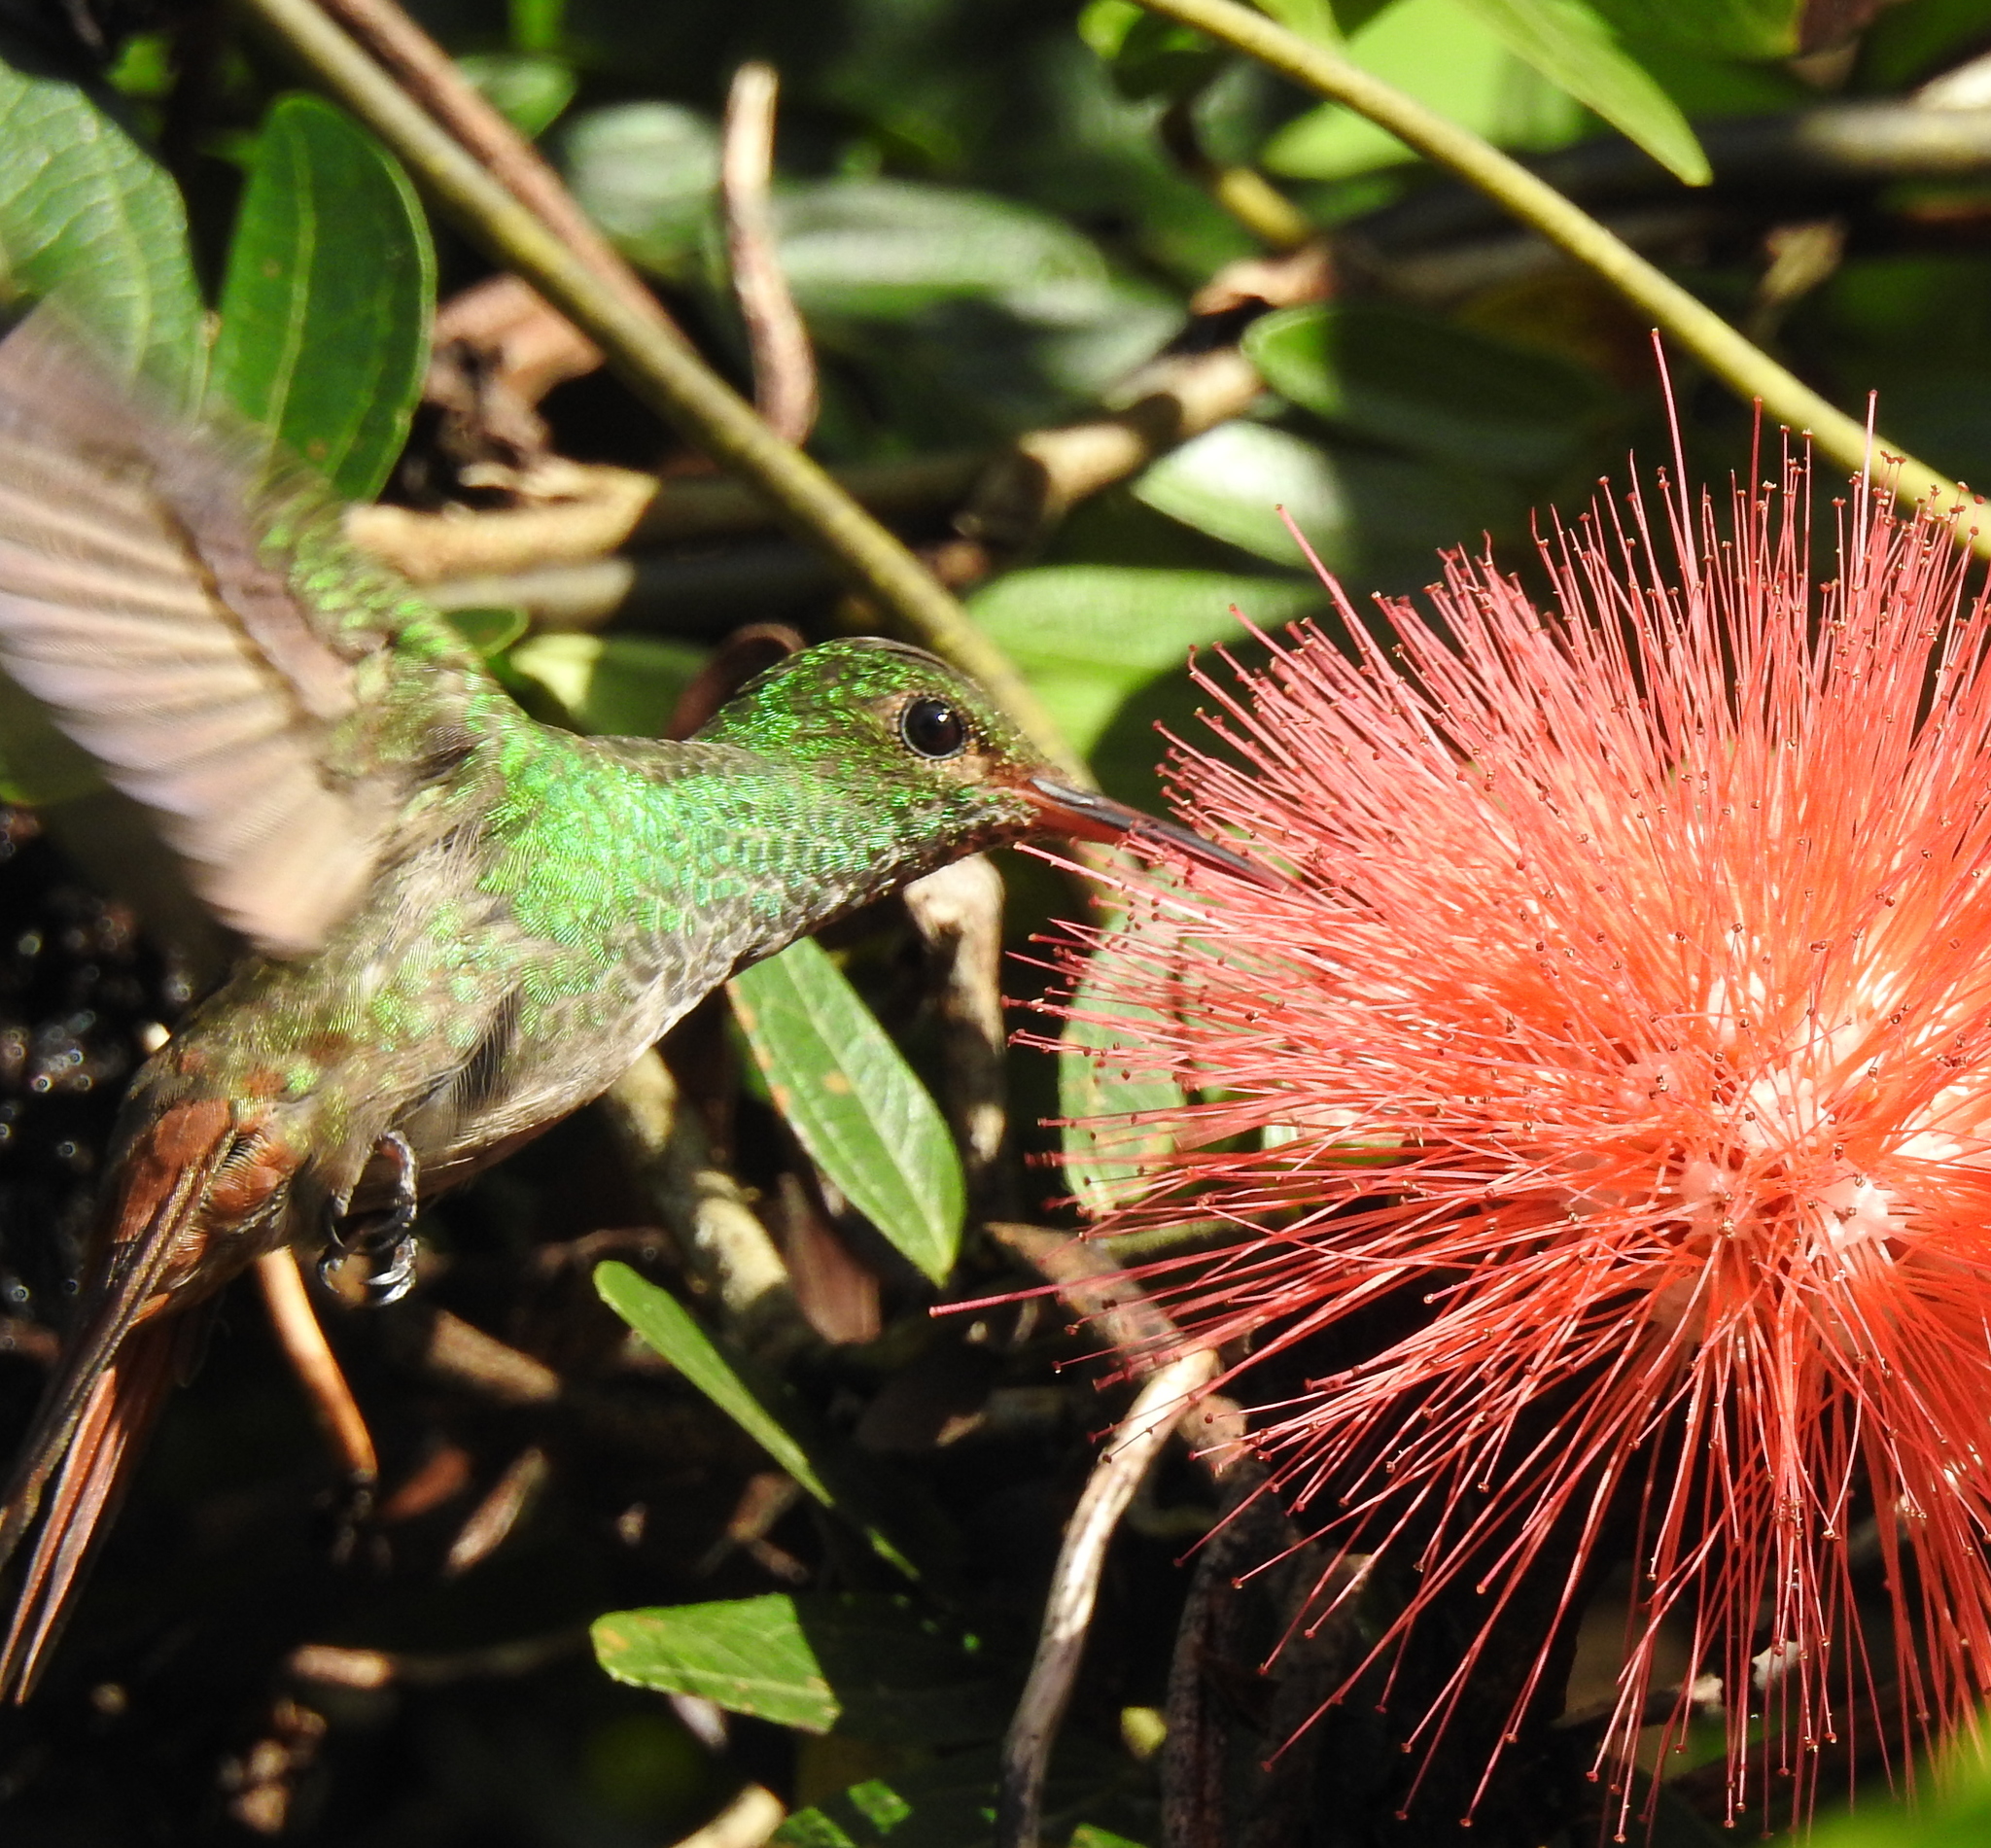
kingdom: Animalia
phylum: Chordata
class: Aves
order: Apodiformes
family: Trochilidae
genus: Amazilia
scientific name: Amazilia tzacatl
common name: Rufous-tailed hummingbird
